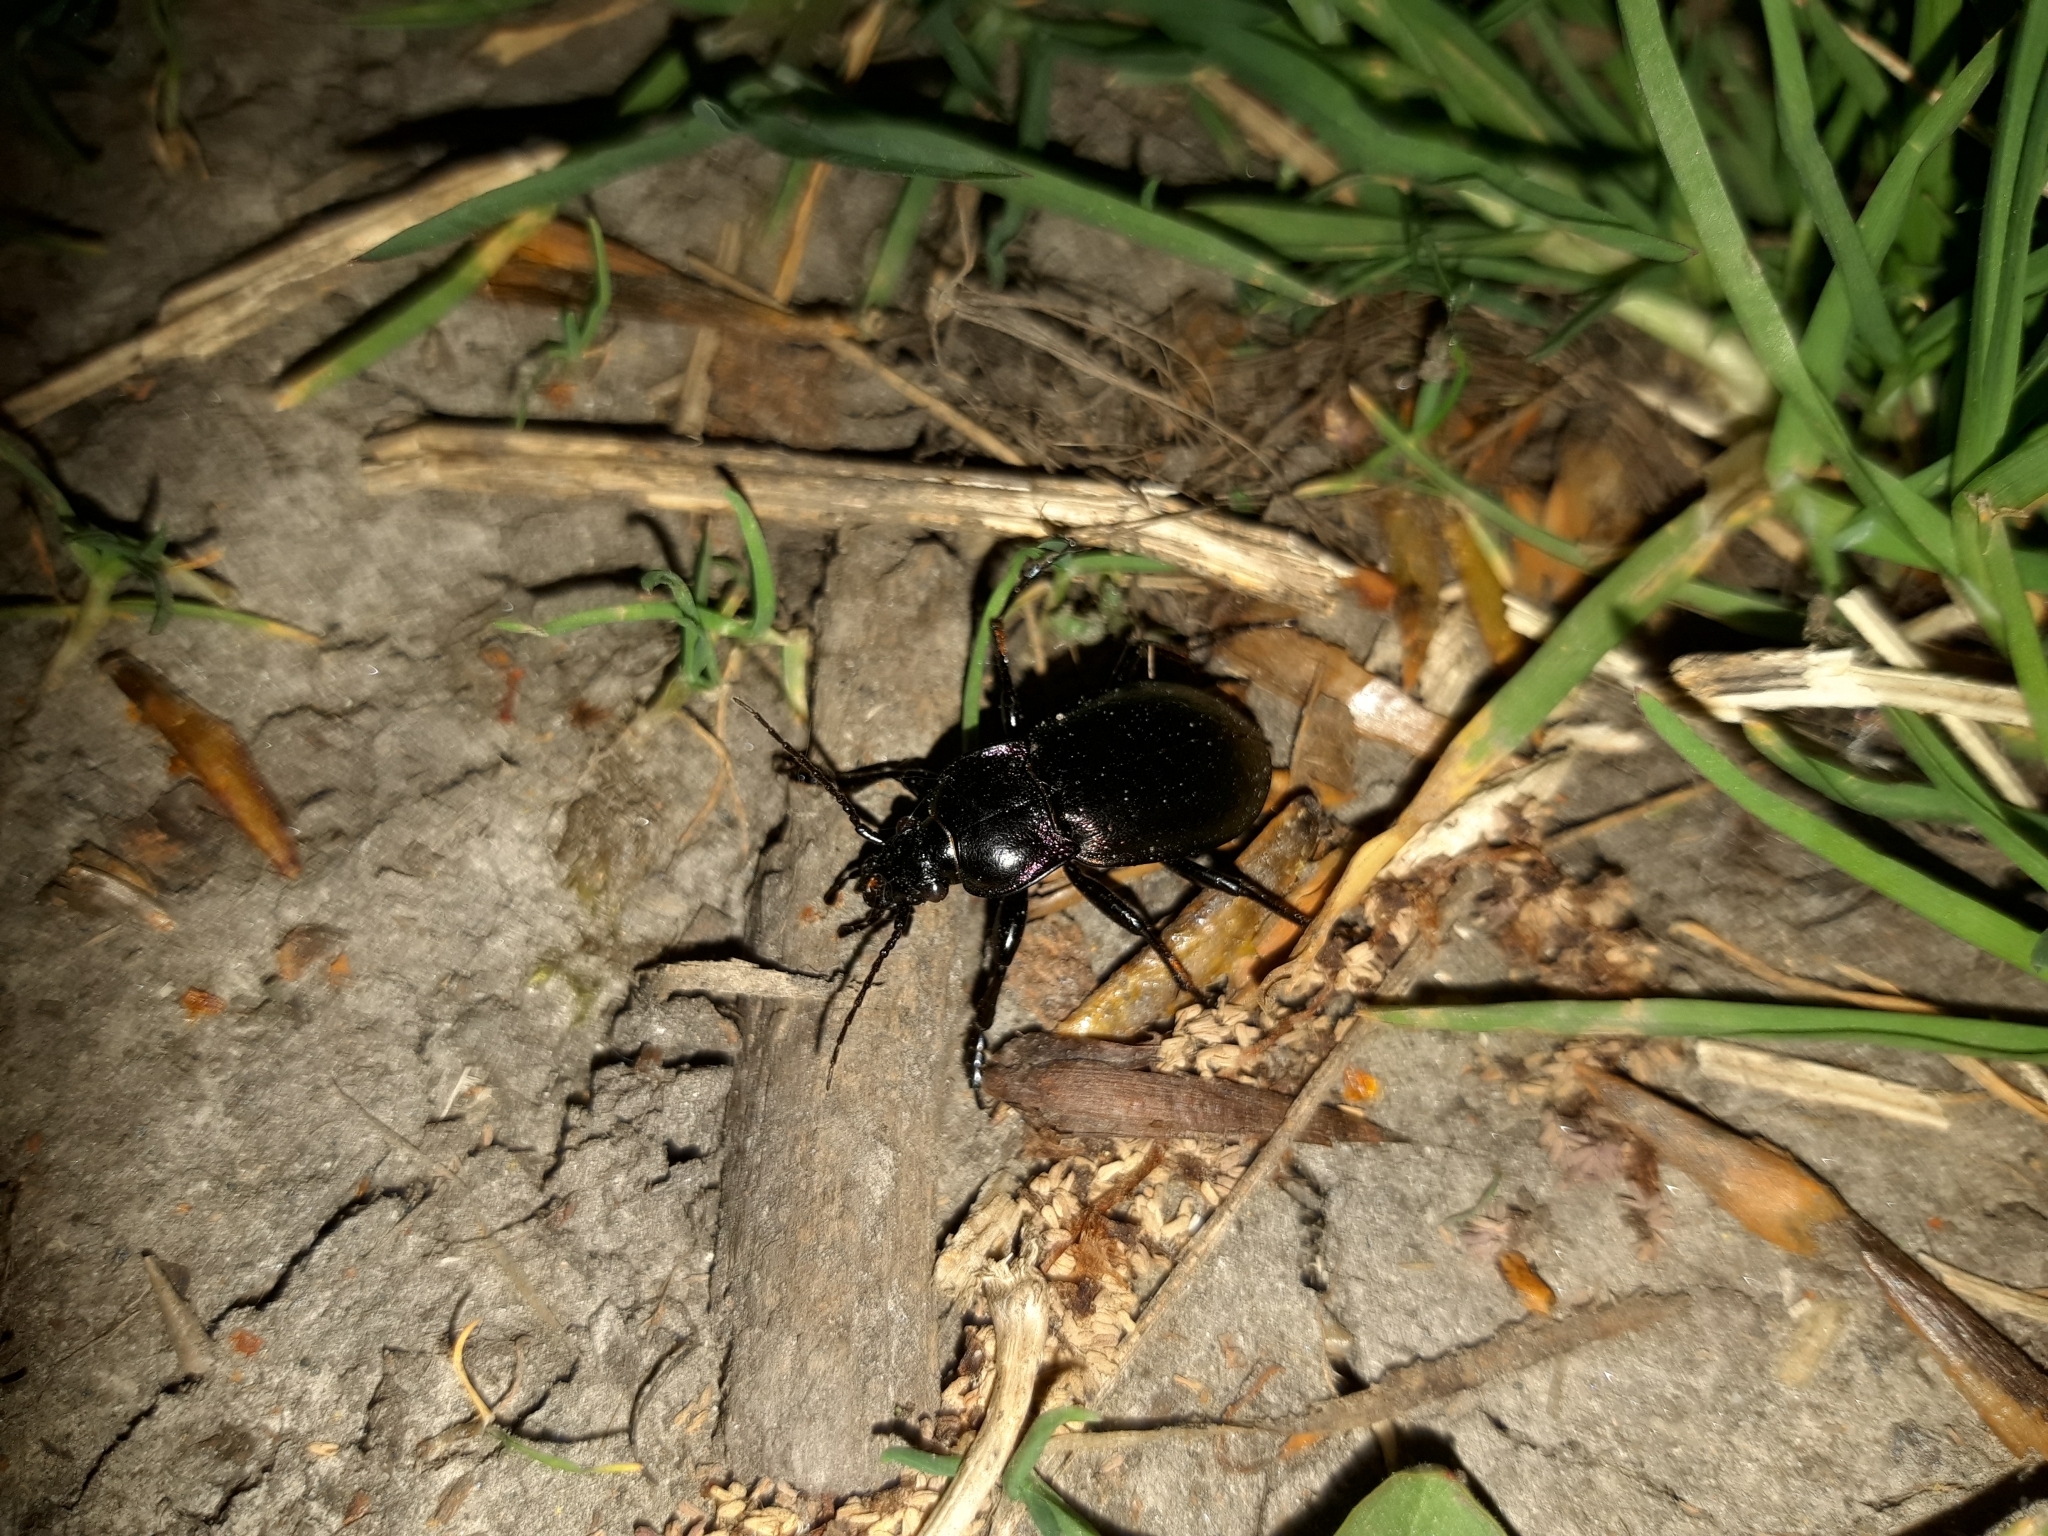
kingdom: Animalia
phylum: Arthropoda
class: Insecta
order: Coleoptera
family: Carabidae
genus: Carabus
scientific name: Carabus nemoralis
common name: European ground beetle
